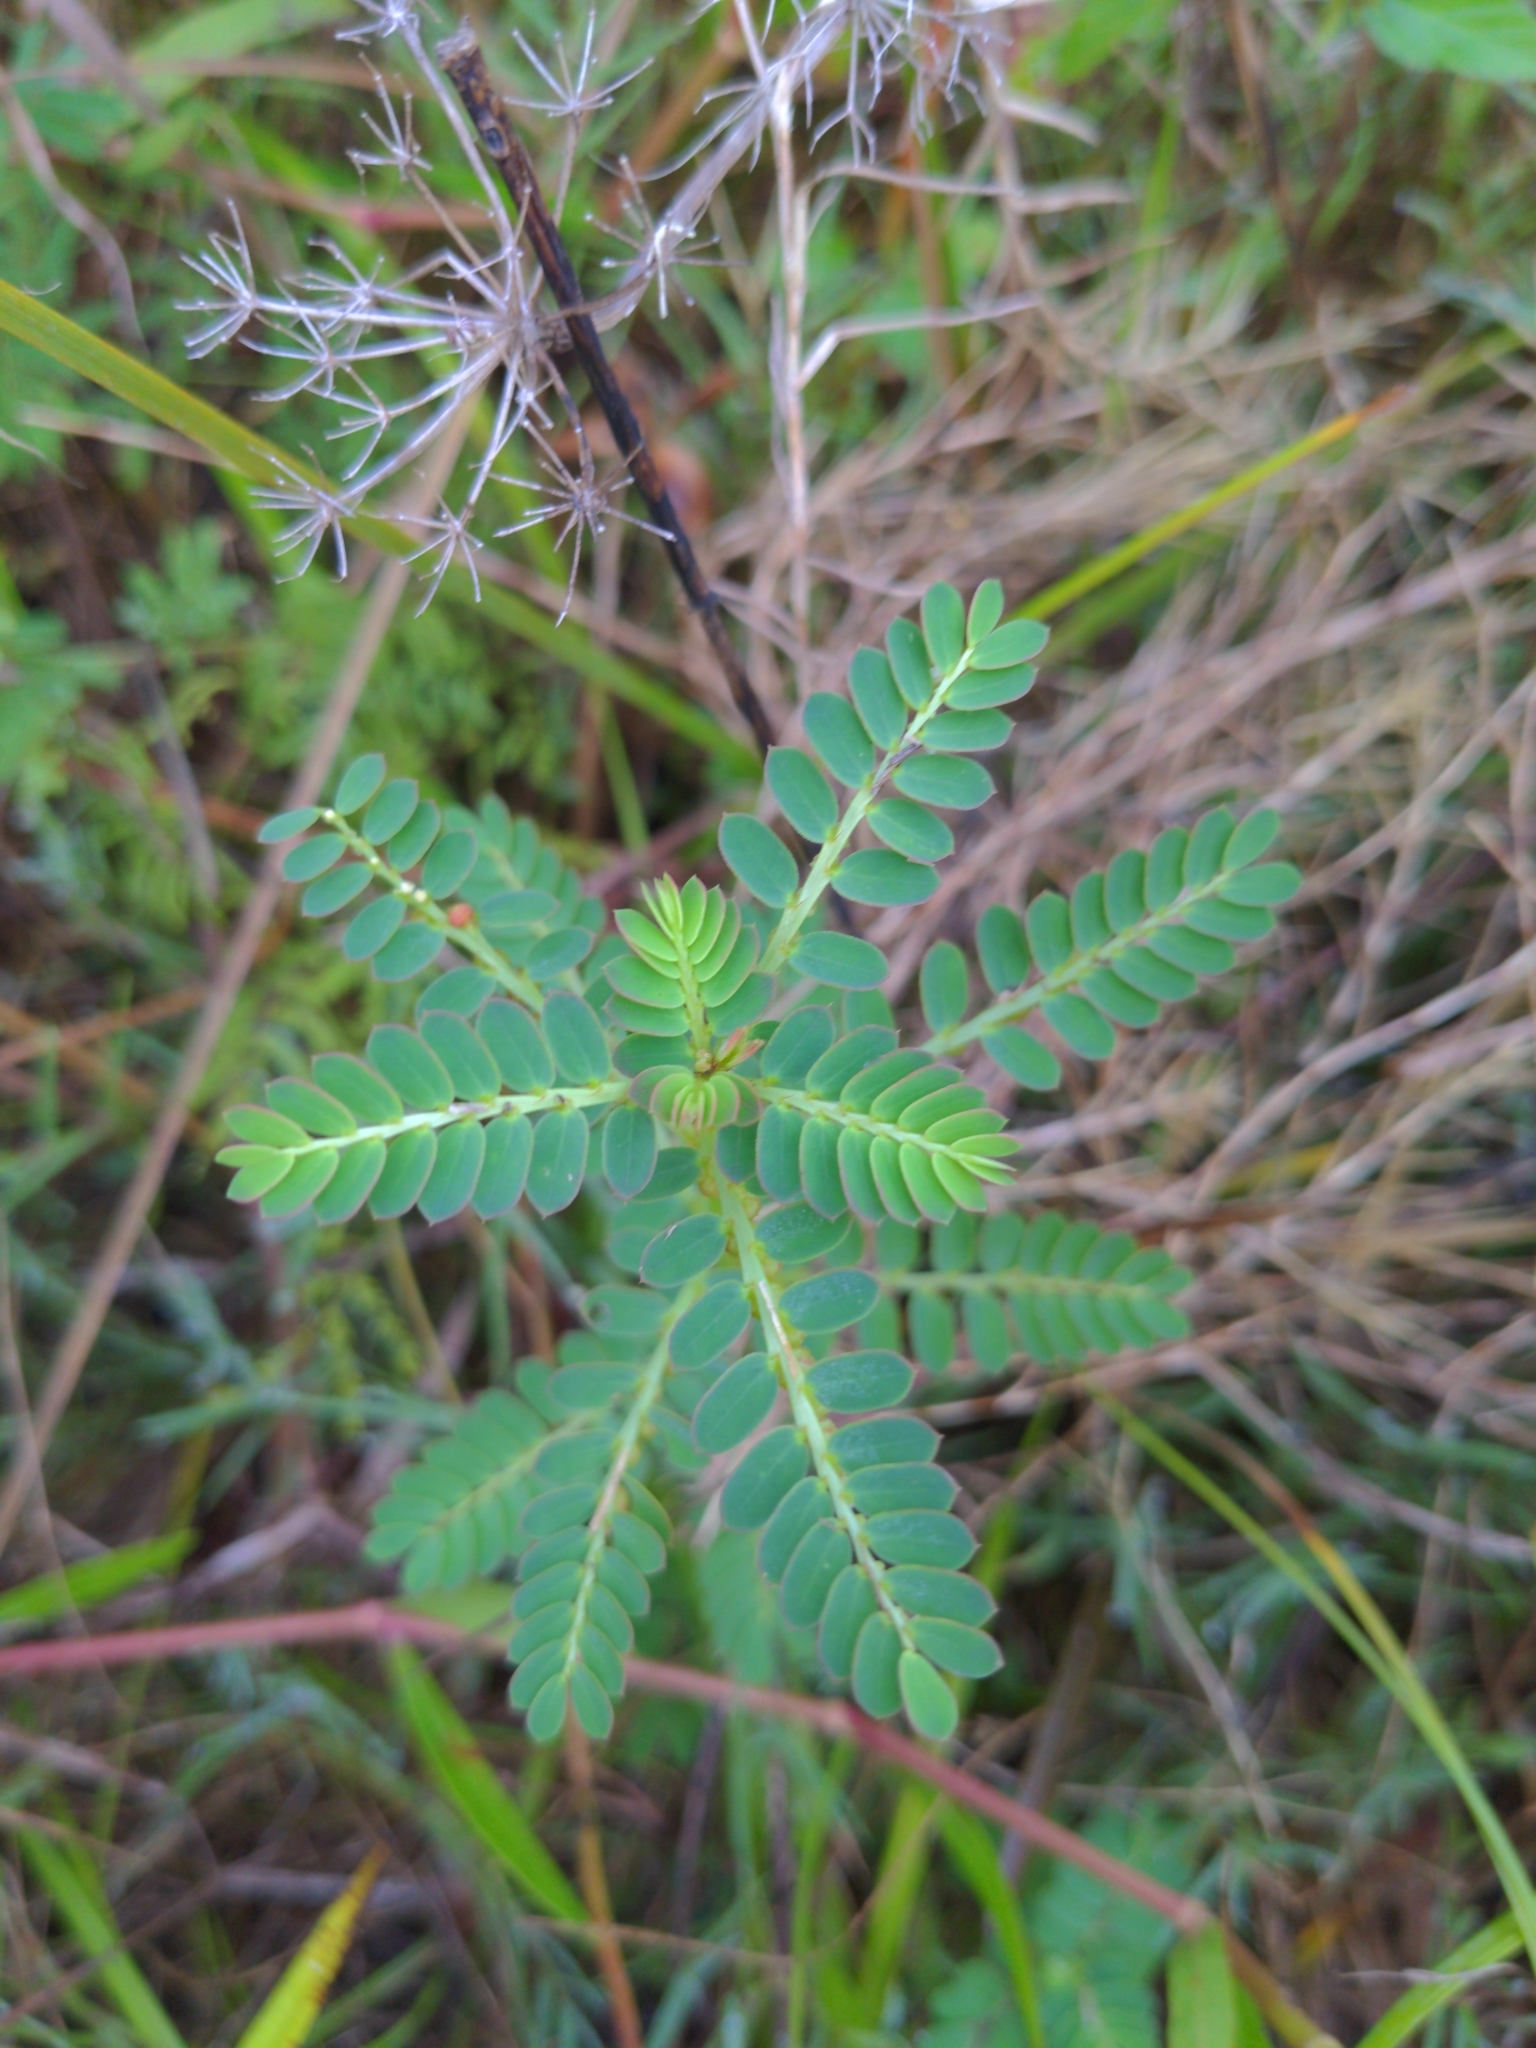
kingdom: Plantae
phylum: Tracheophyta
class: Magnoliopsida
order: Malpighiales
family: Phyllanthaceae
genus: Phyllanthus
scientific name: Phyllanthus urinaria
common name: Chamber bitter
